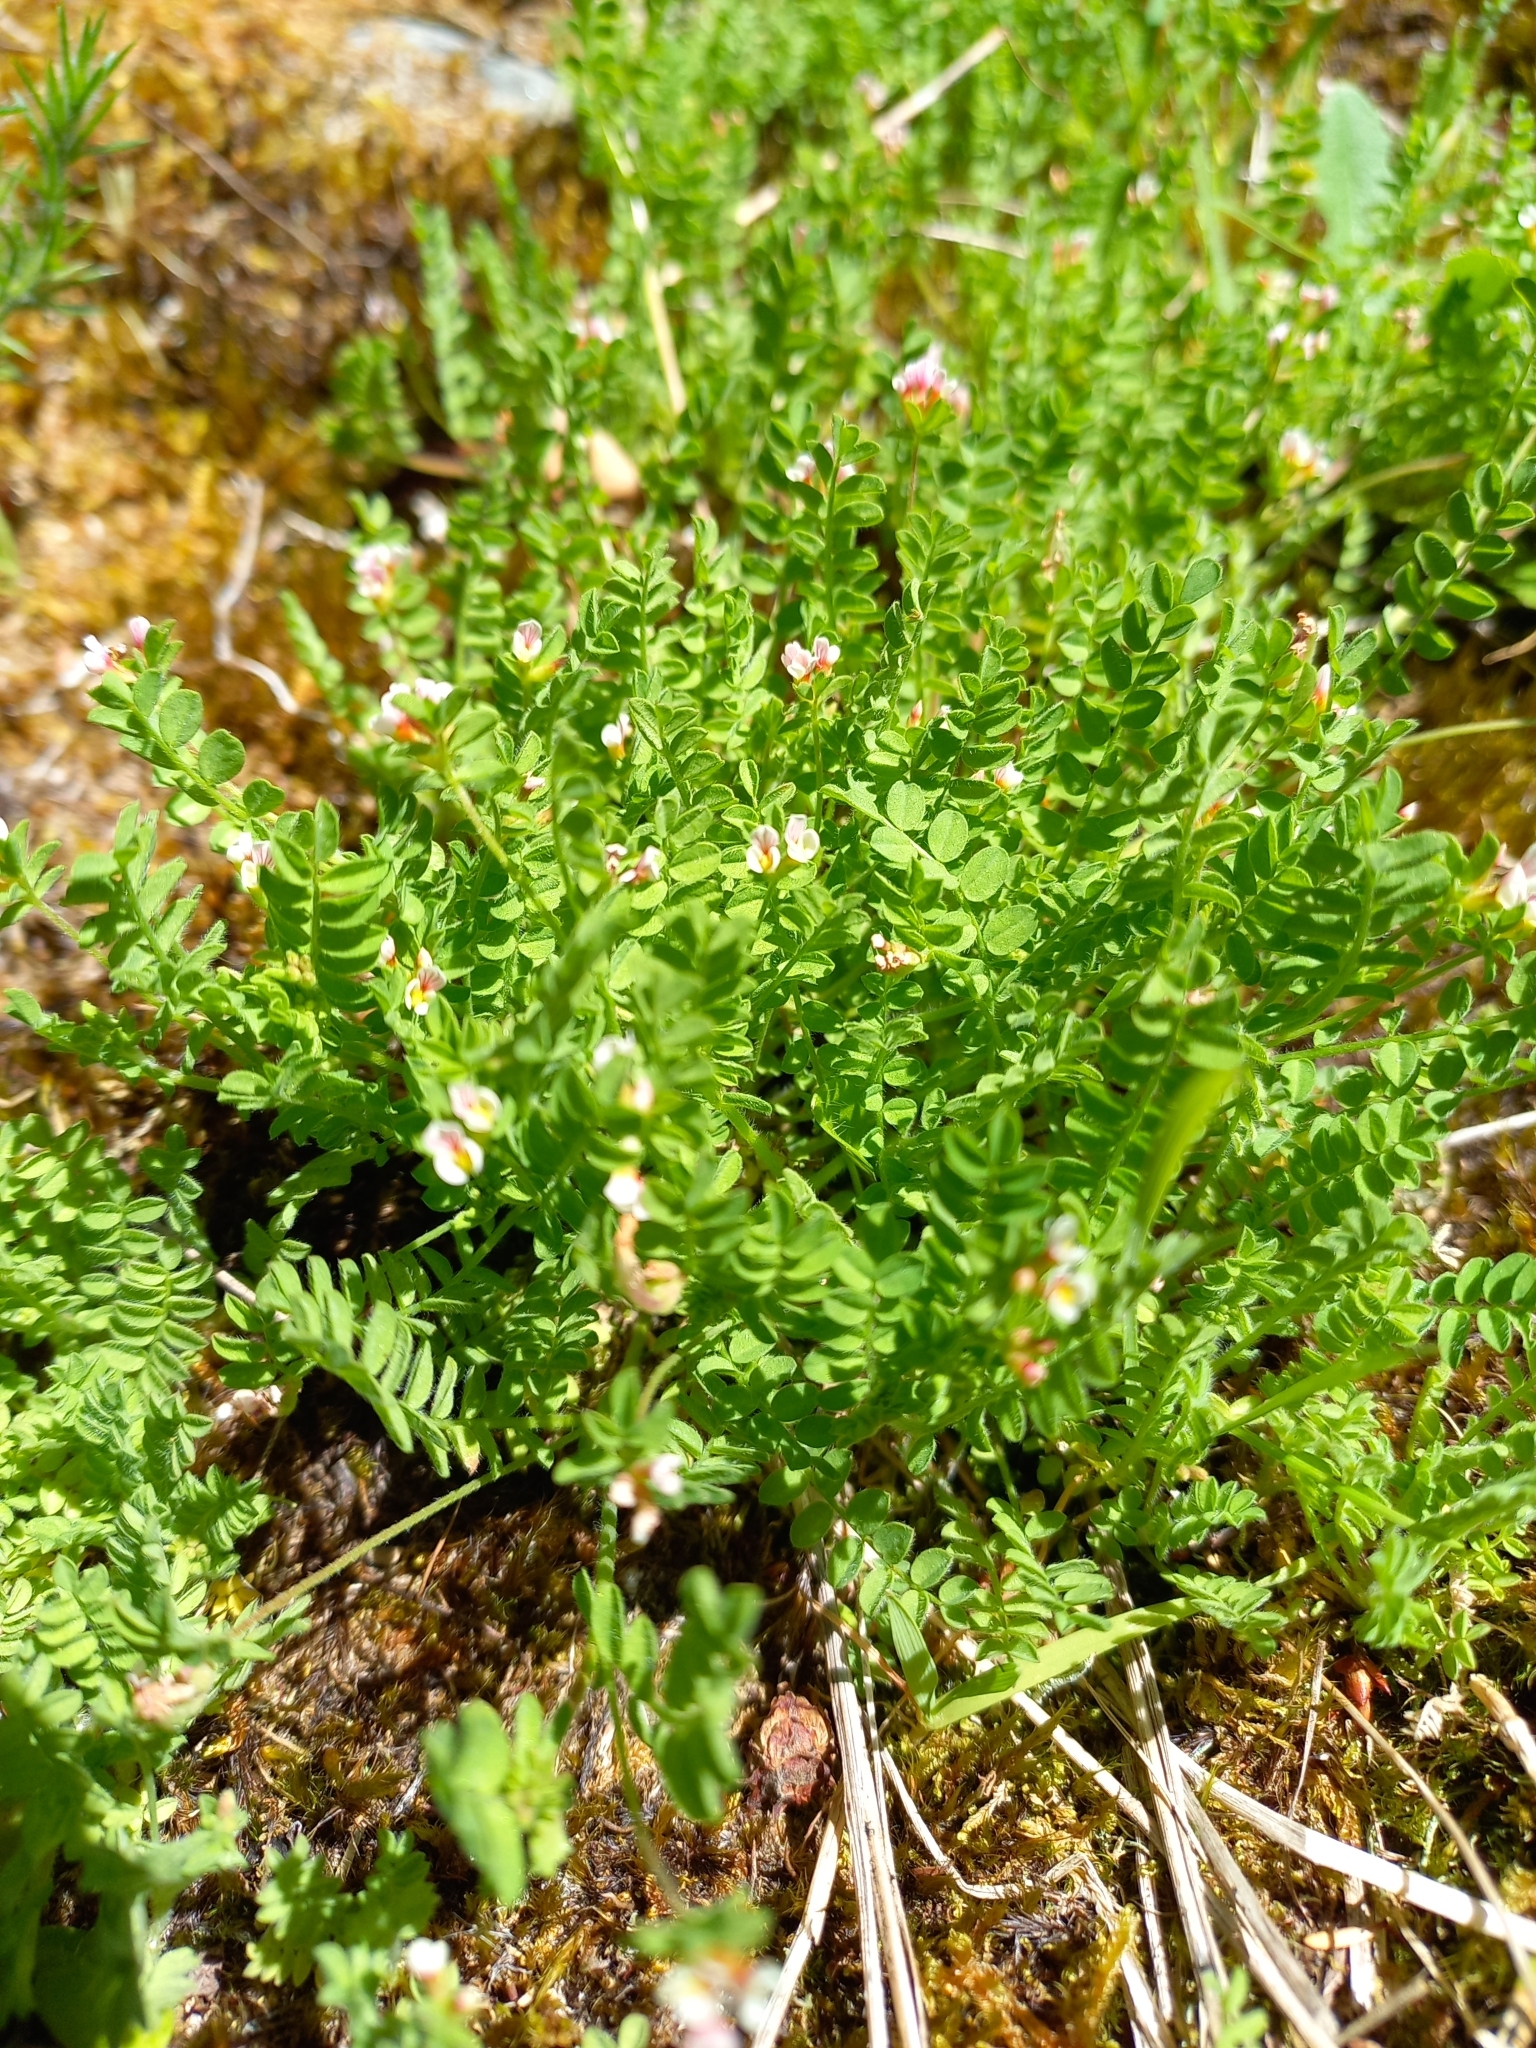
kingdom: Plantae
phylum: Tracheophyta
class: Magnoliopsida
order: Fabales
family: Fabaceae
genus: Ornithopus
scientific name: Ornithopus perpusillus
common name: Bird's-foot
